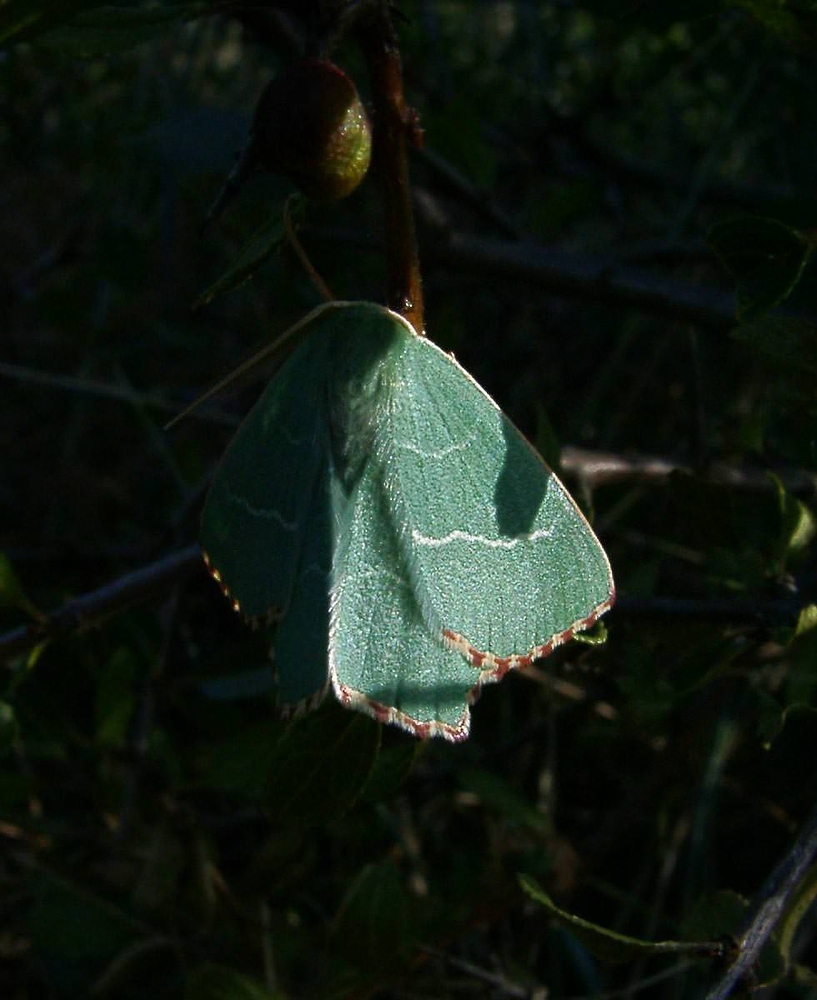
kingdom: Animalia
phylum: Arthropoda
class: Insecta
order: Lepidoptera
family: Geometridae
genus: Thalera
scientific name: Thalera fimbrialis
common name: Sussex emerald
